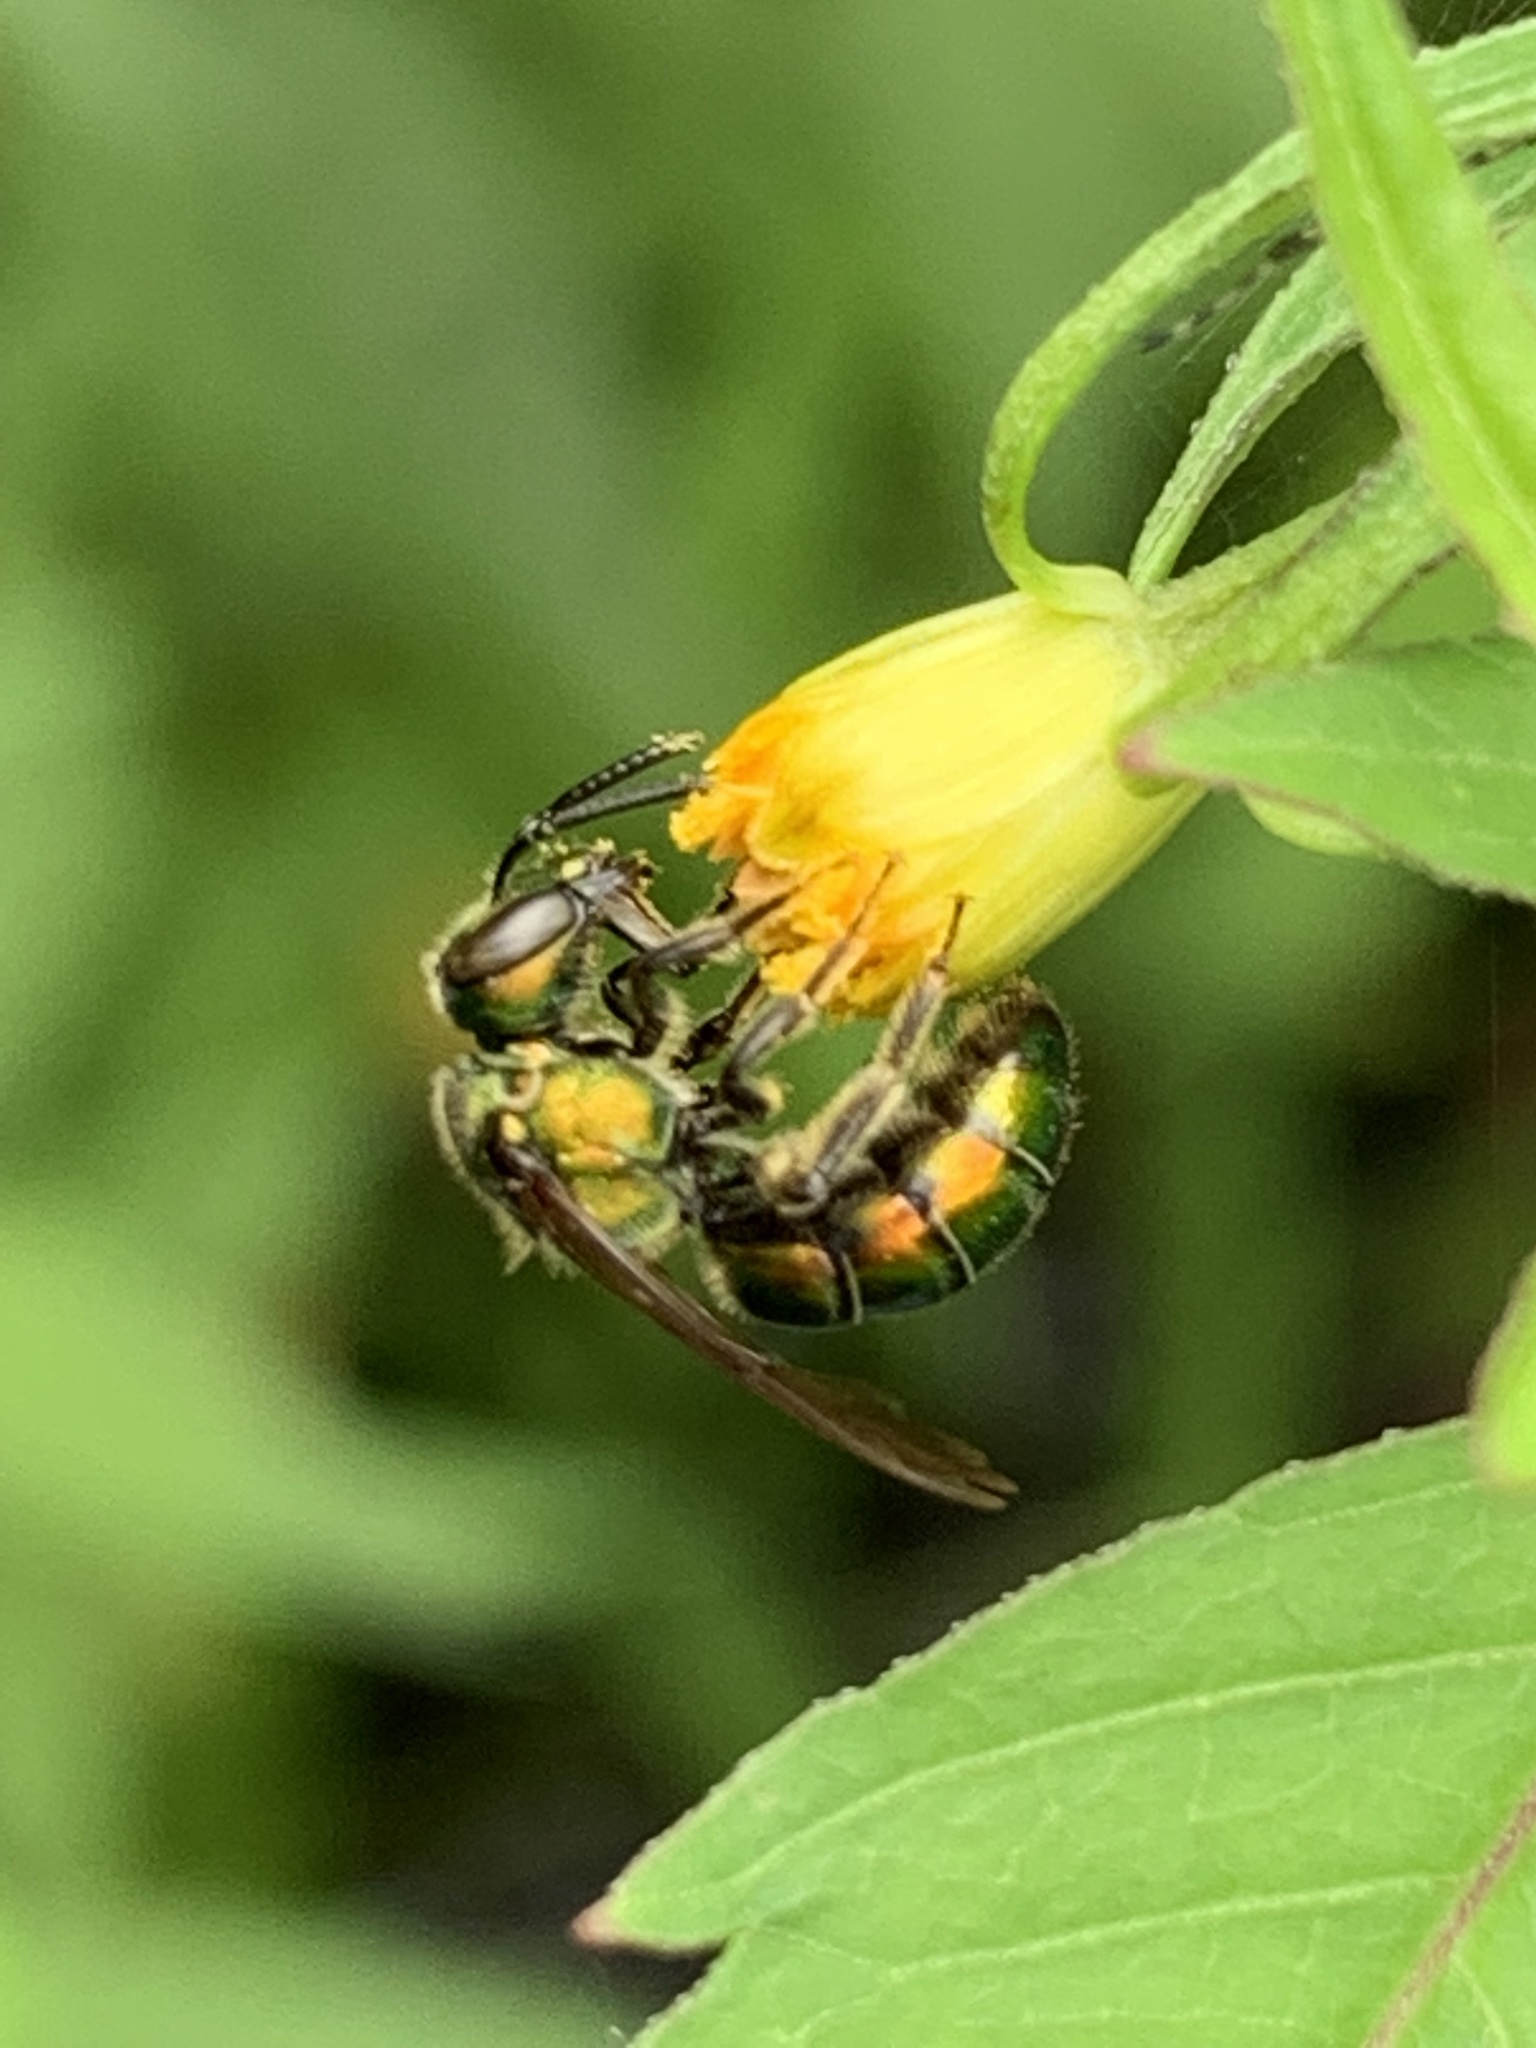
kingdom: Animalia
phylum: Arthropoda
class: Insecta
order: Hymenoptera
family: Halictidae
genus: Augochlora
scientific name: Augochlora pura
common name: Pure green sweat bee
